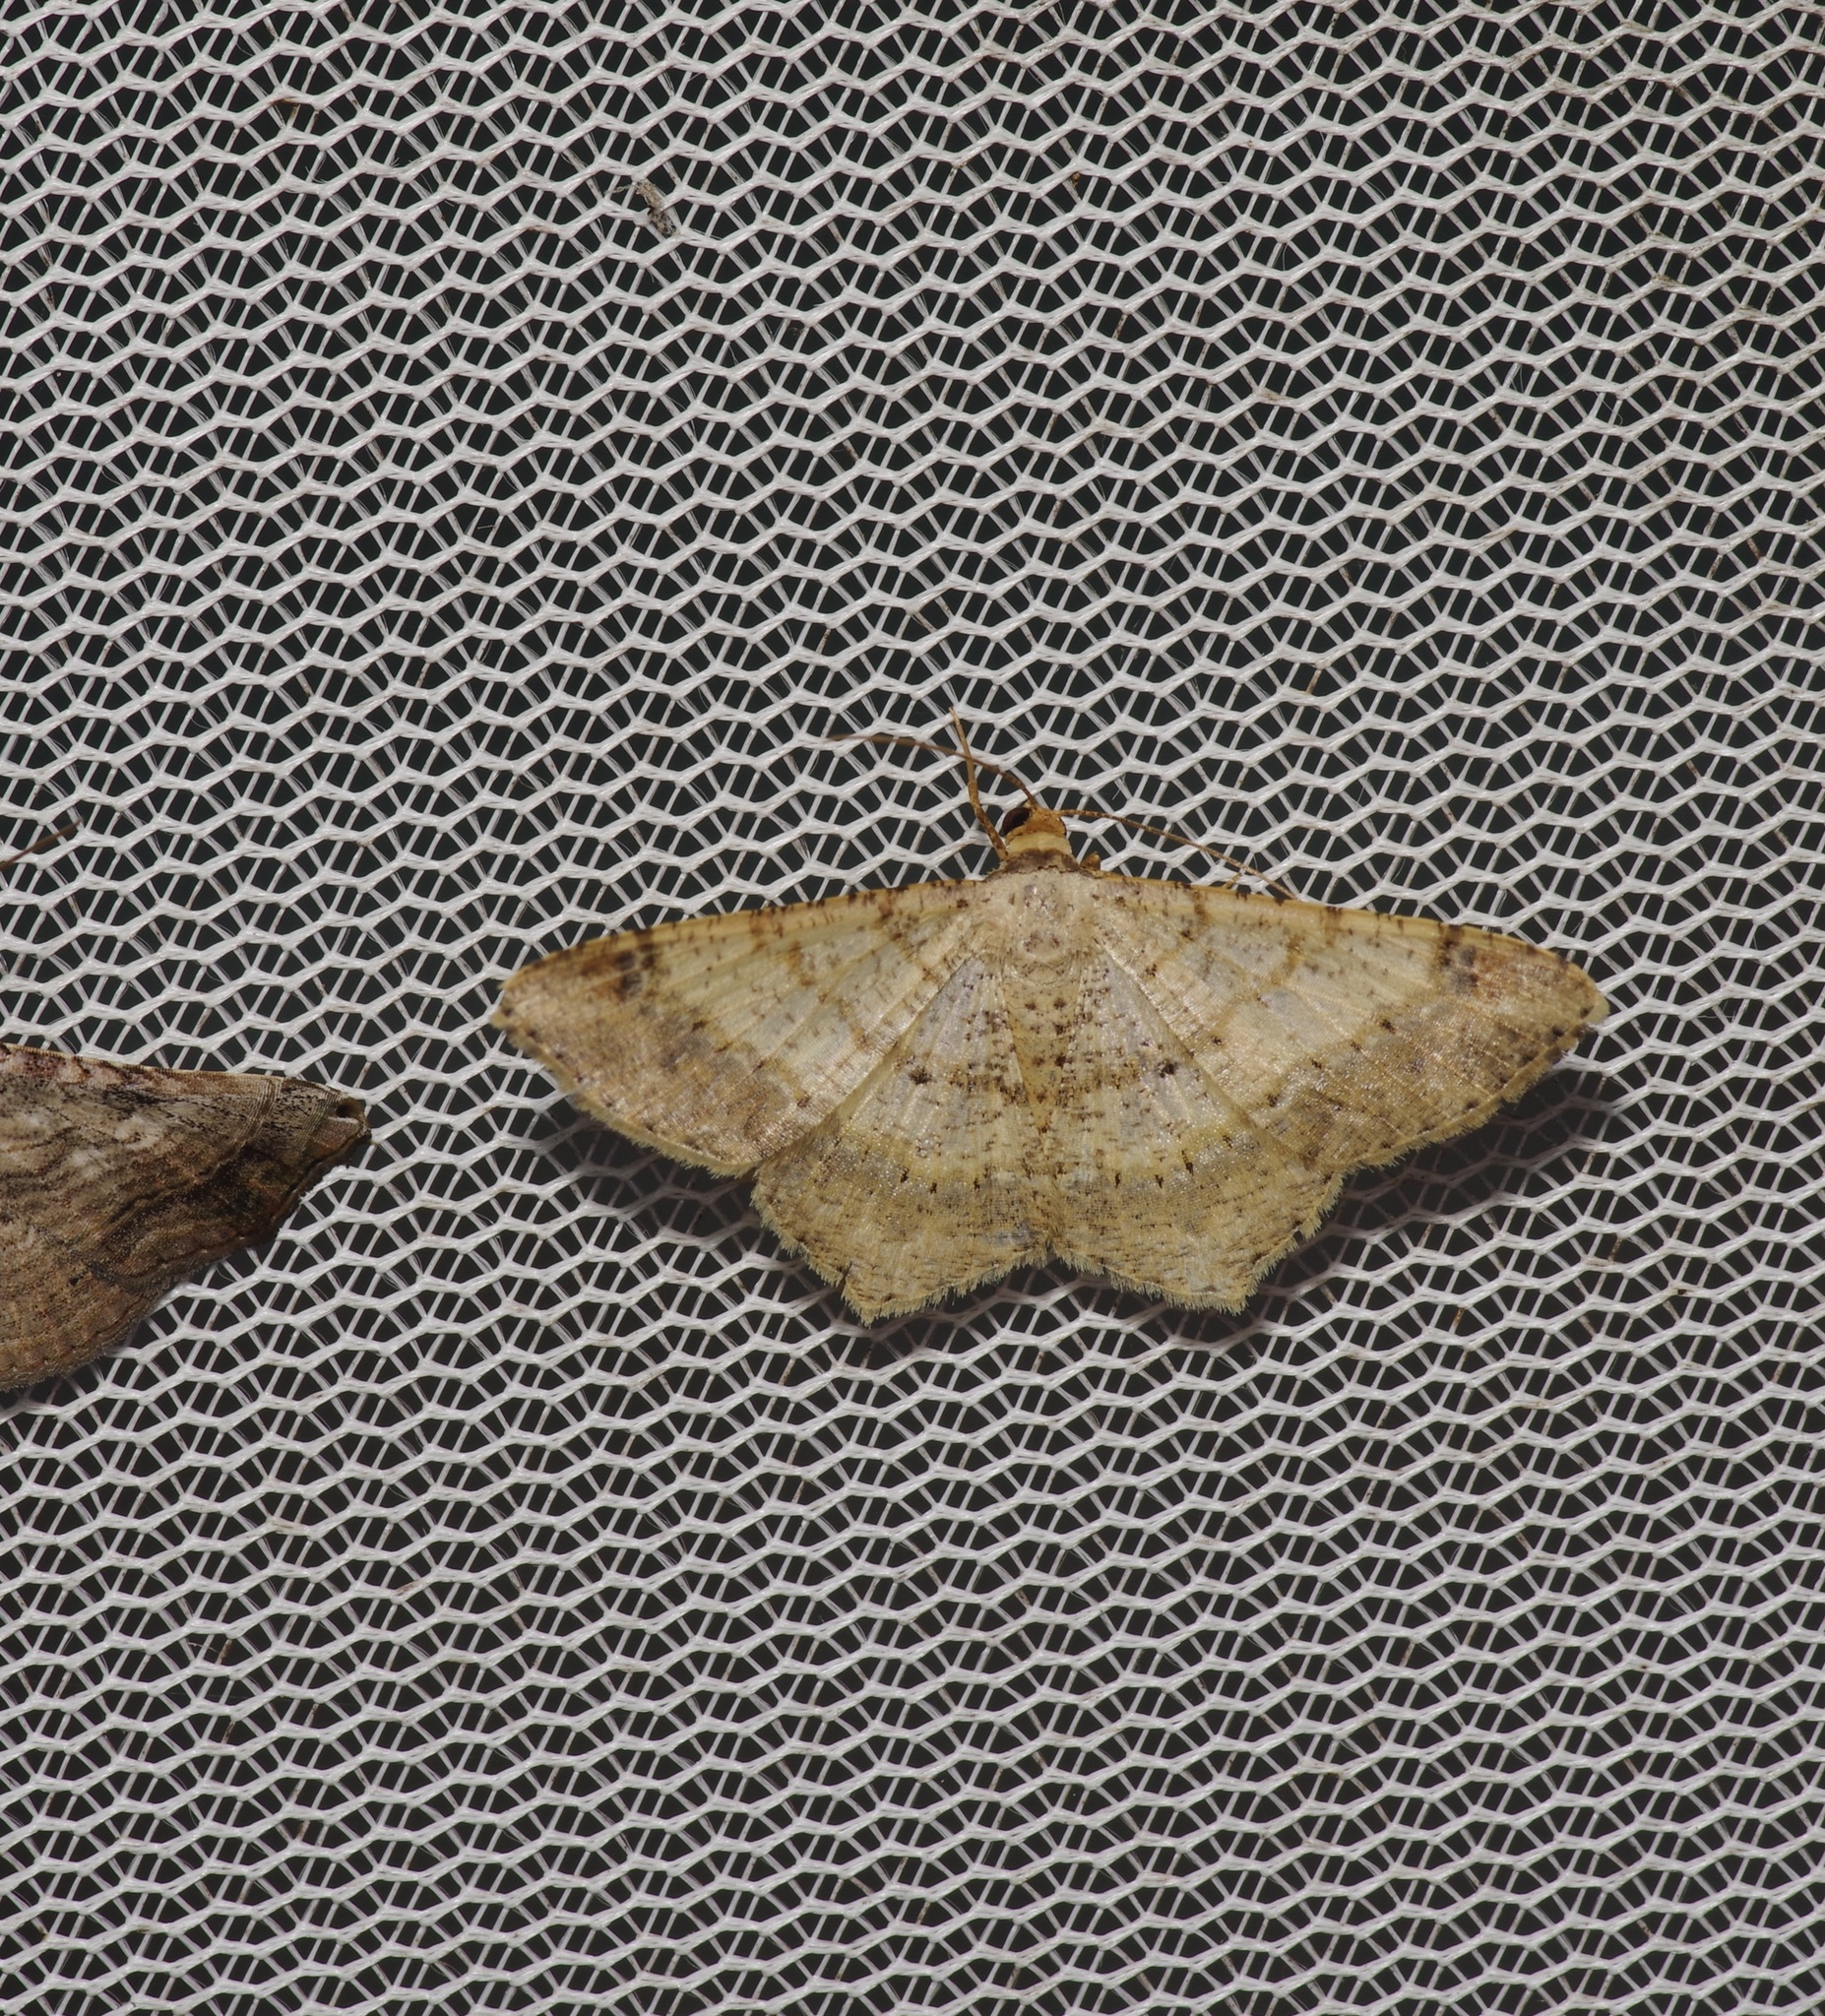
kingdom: Animalia
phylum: Arthropoda
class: Insecta
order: Lepidoptera
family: Geometridae
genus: Macaria
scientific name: Macaria abydata
